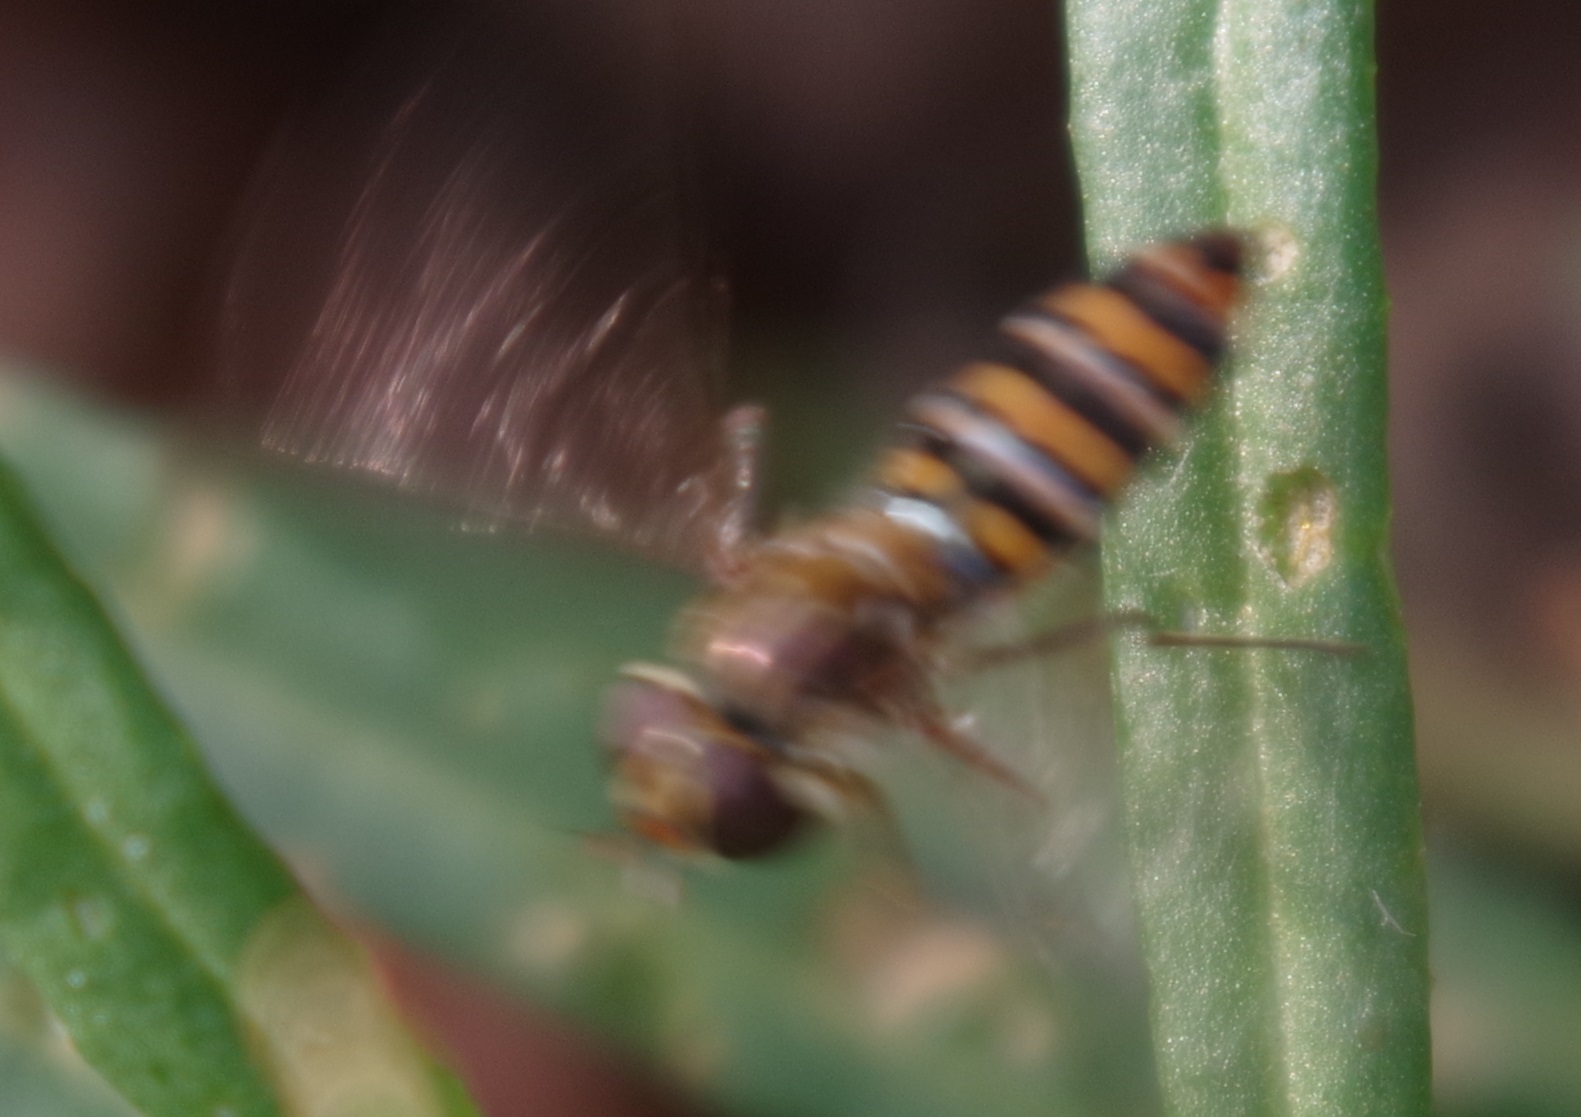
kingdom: Animalia
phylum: Arthropoda
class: Insecta
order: Diptera
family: Syrphidae
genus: Episyrphus
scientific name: Episyrphus balteatus
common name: Marmalade hoverfly
